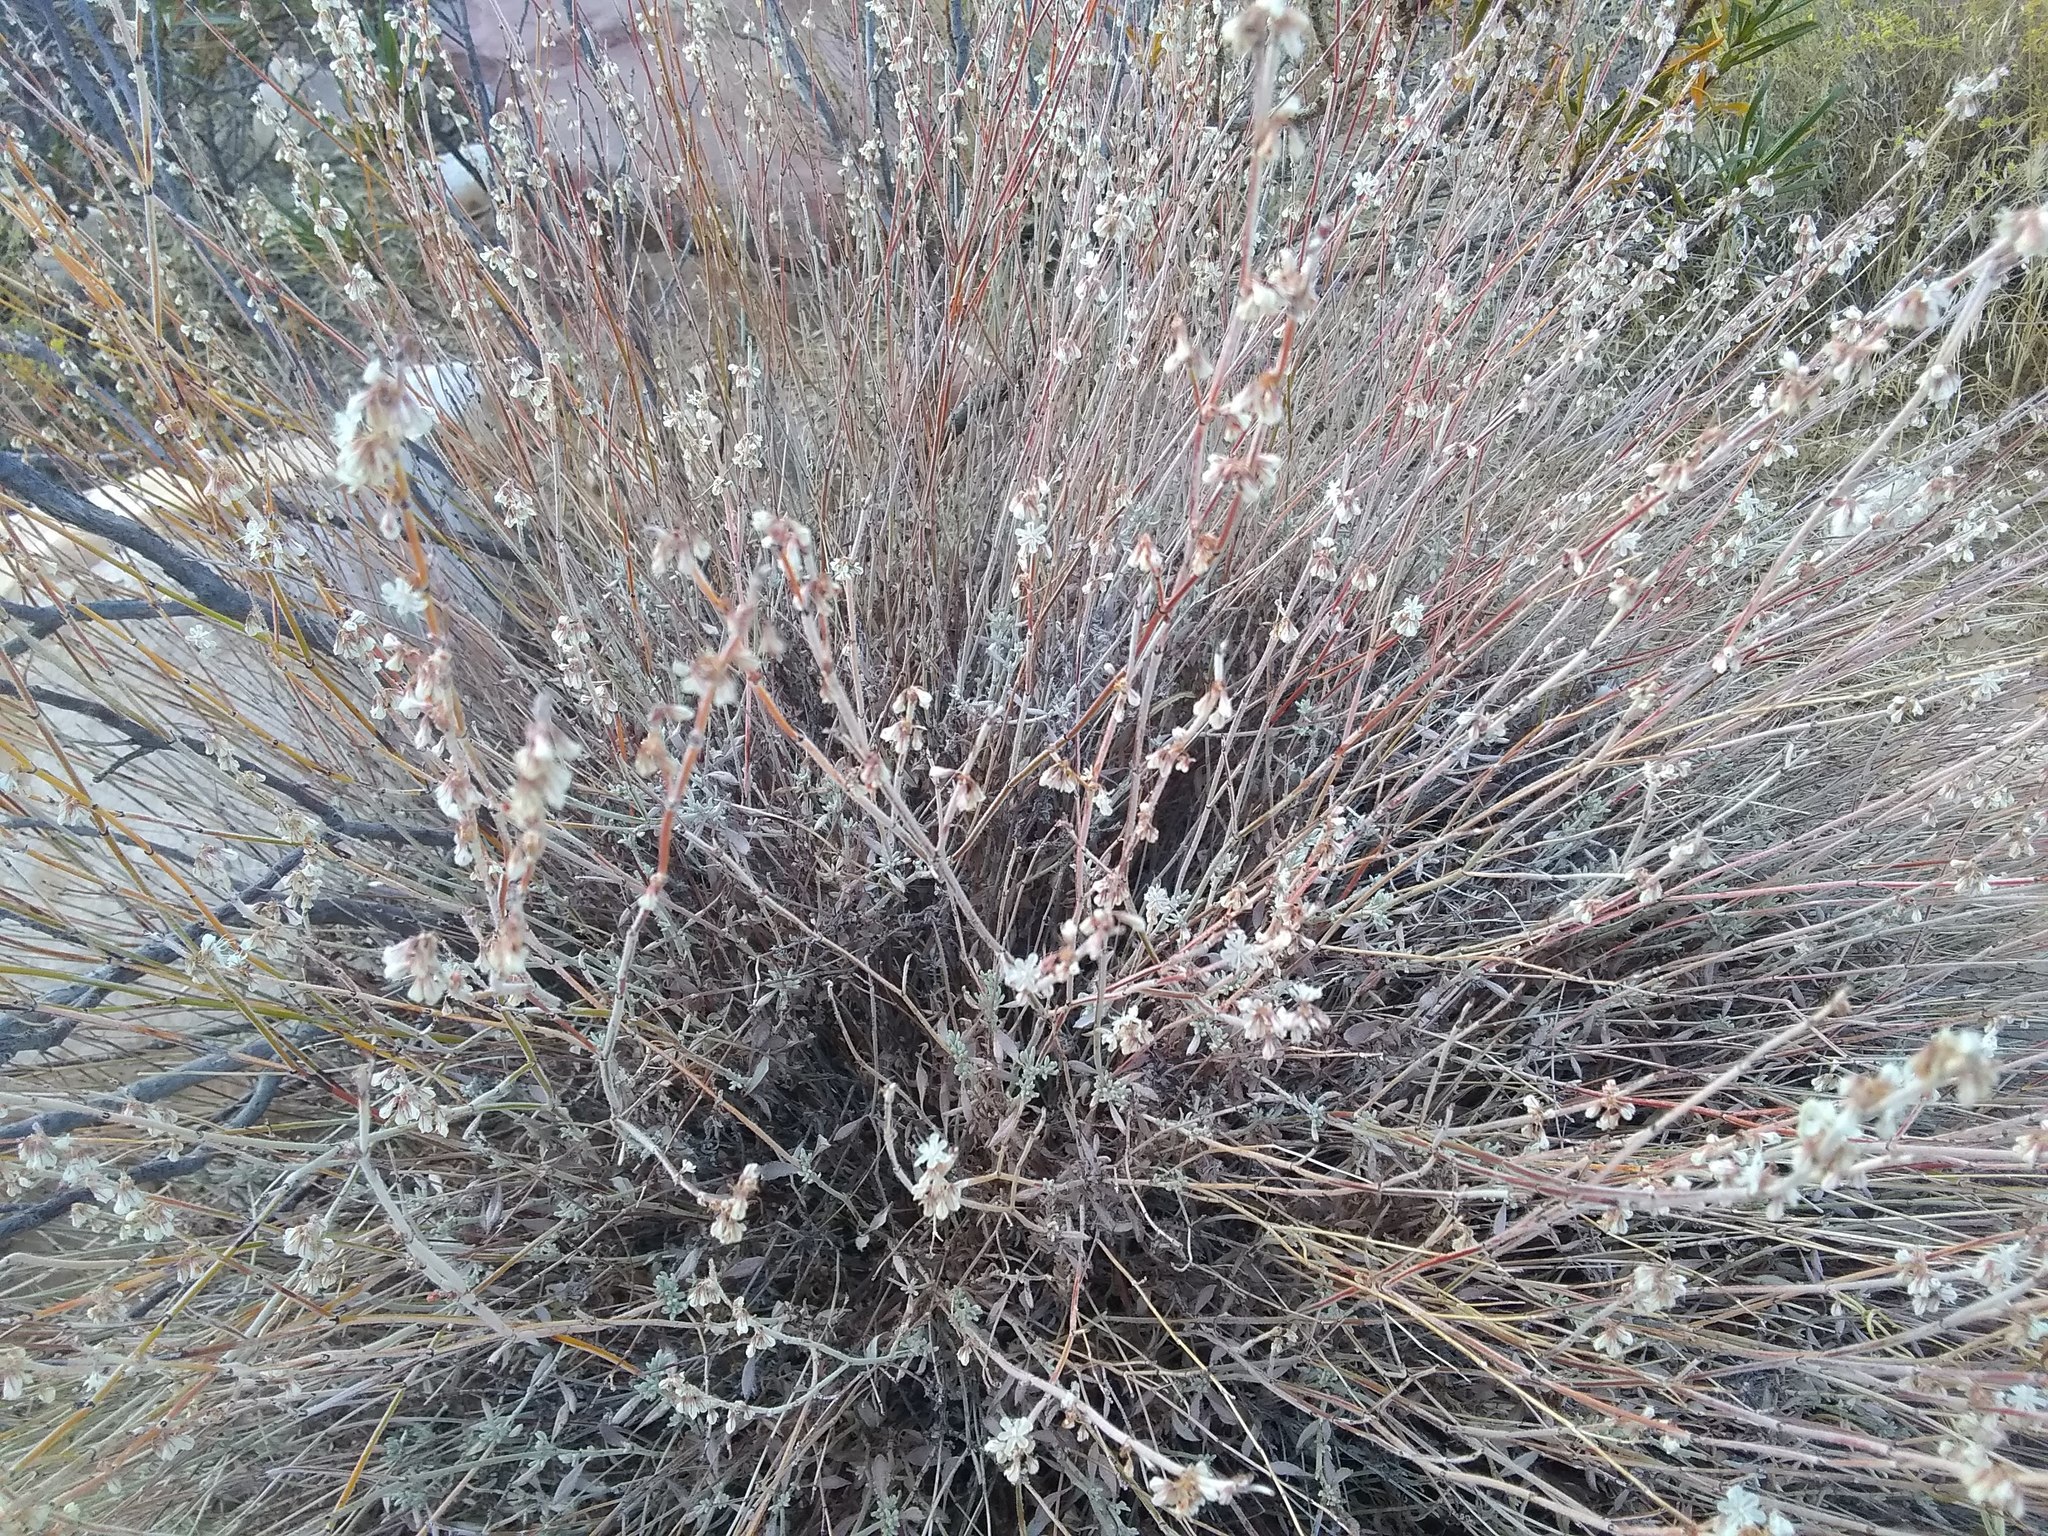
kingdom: Plantae
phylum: Tracheophyta
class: Magnoliopsida
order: Caryophyllales
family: Polygonaceae
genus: Eriogonum
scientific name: Eriogonum panamintense
